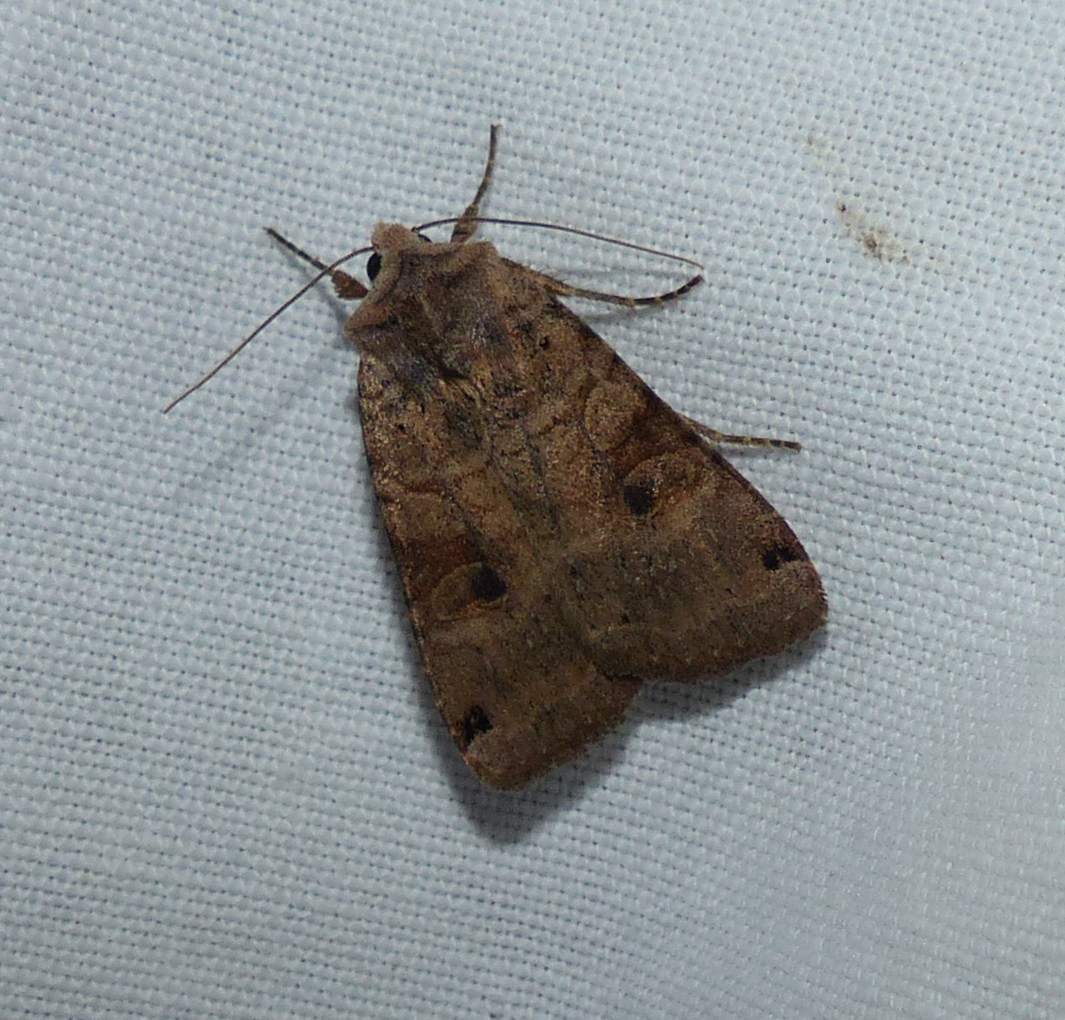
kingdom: Animalia
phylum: Arthropoda
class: Insecta
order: Lepidoptera
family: Noctuidae
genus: Xestia
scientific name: Xestia smithii
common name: Smith's dart
